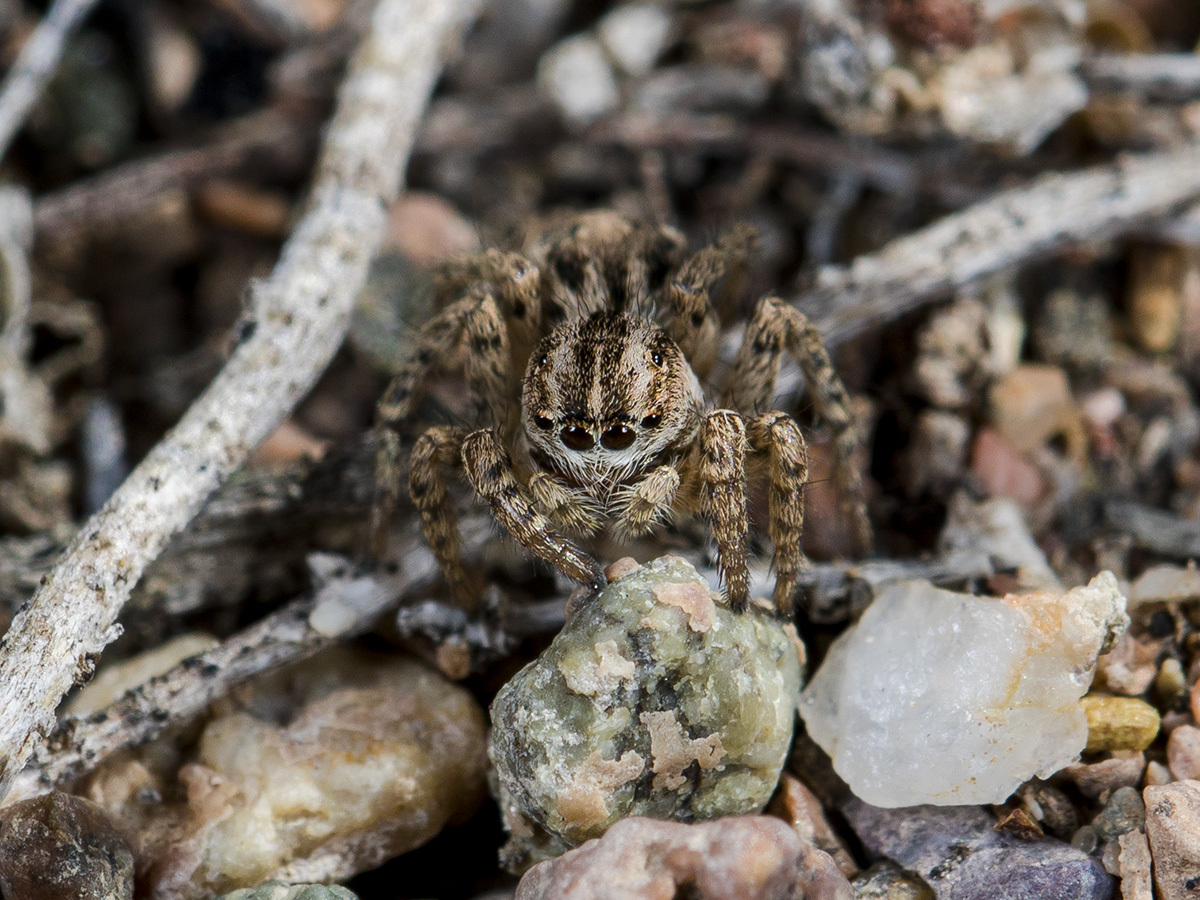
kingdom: Animalia
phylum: Arthropoda
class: Arachnida
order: Araneae
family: Salticidae
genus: Aelurillus
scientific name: Aelurillus m-nigrum
